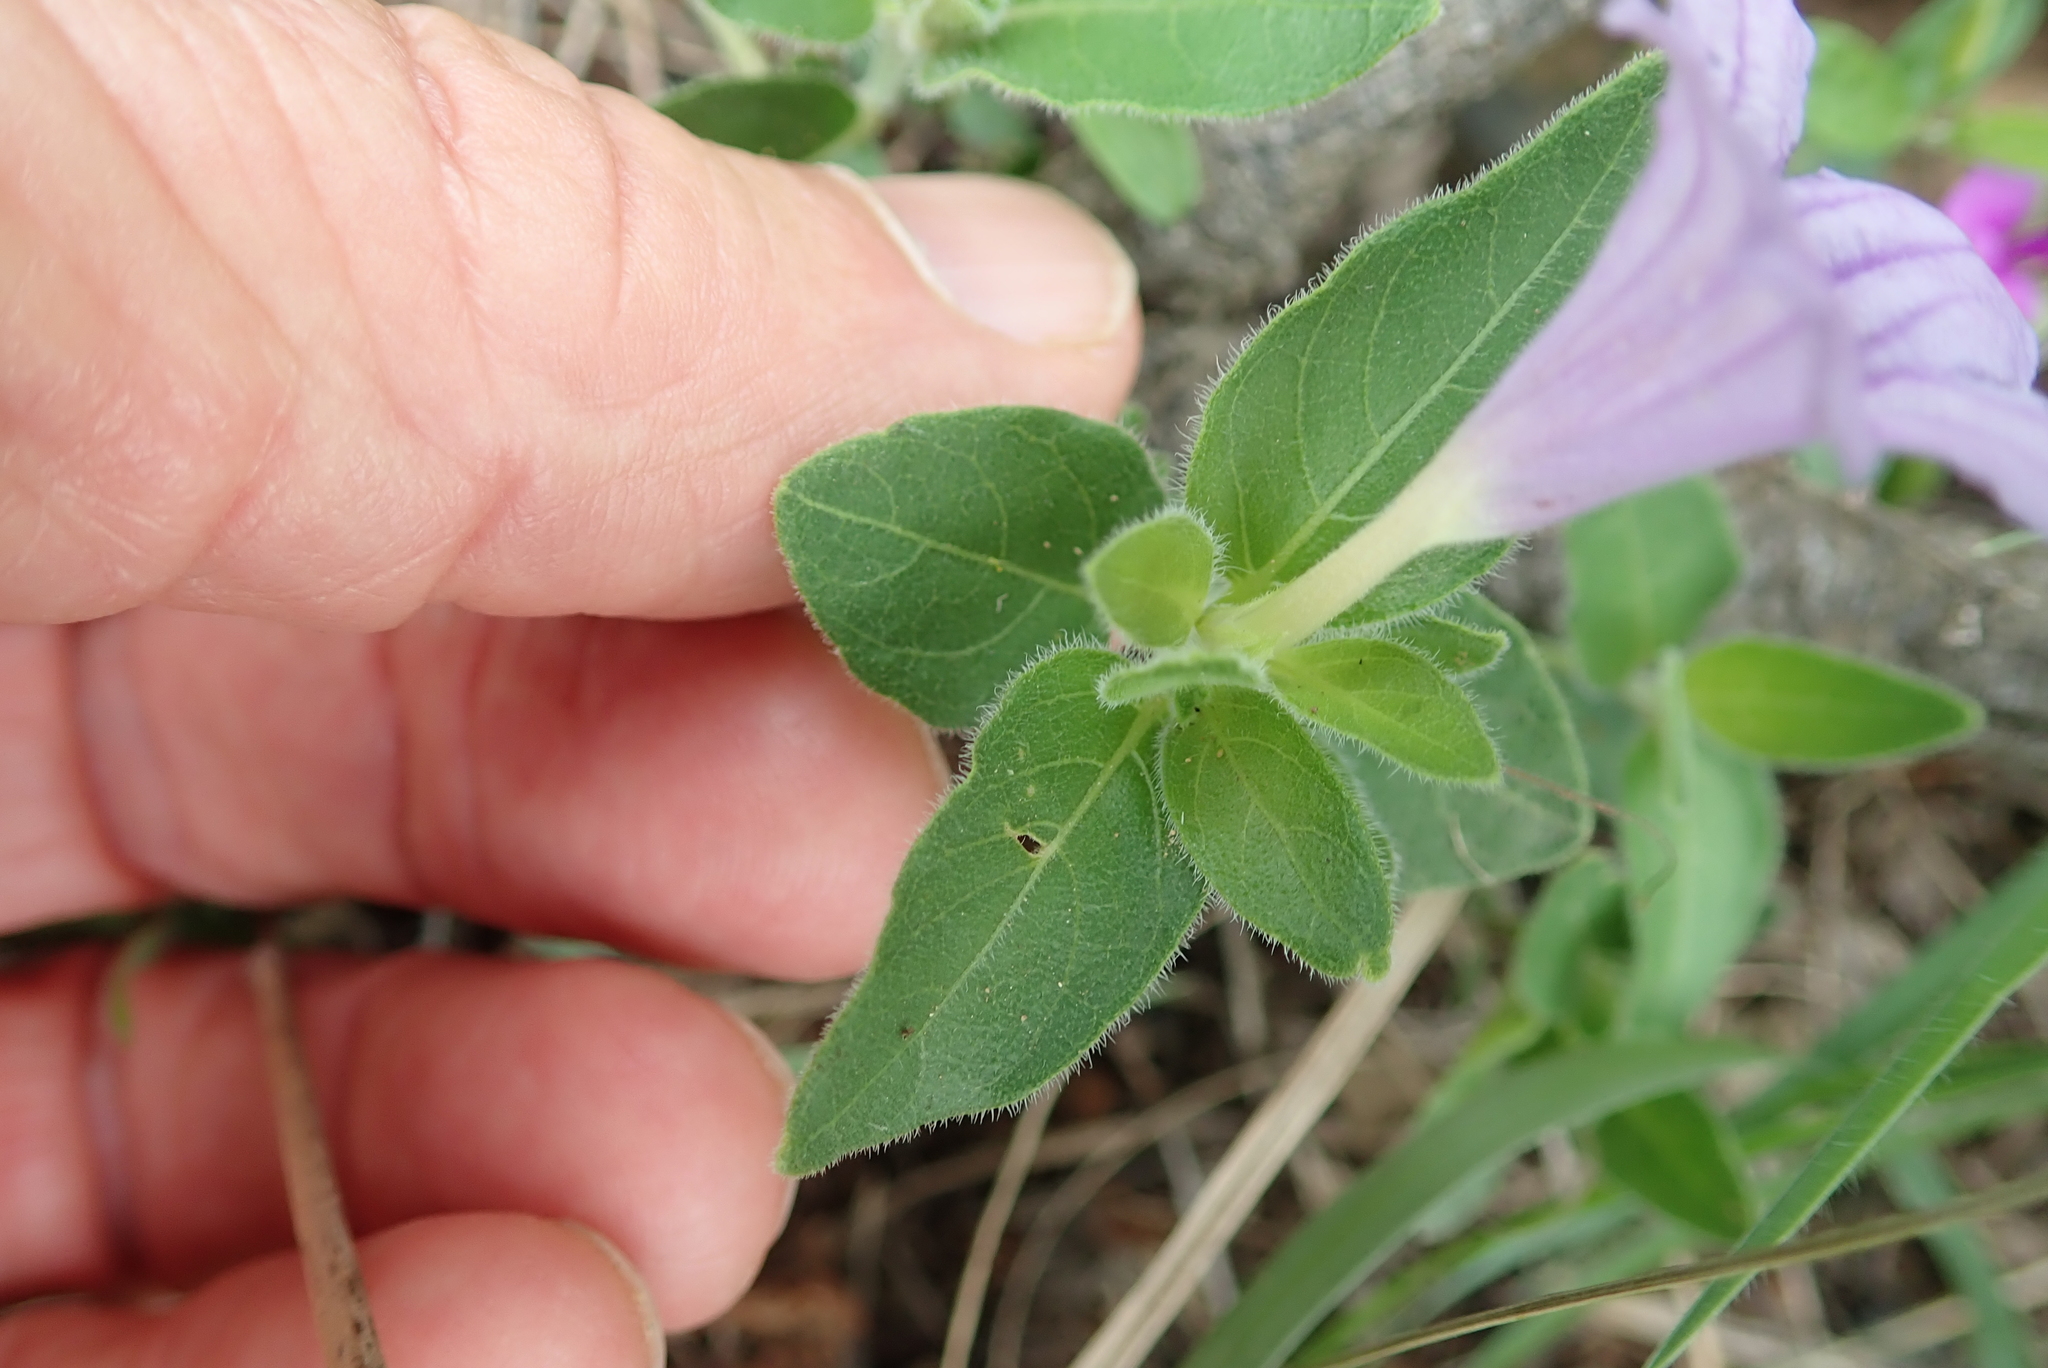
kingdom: Plantae
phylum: Tracheophyta
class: Magnoliopsida
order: Lamiales
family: Acanthaceae
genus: Ruellia
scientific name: Ruellia cordata
